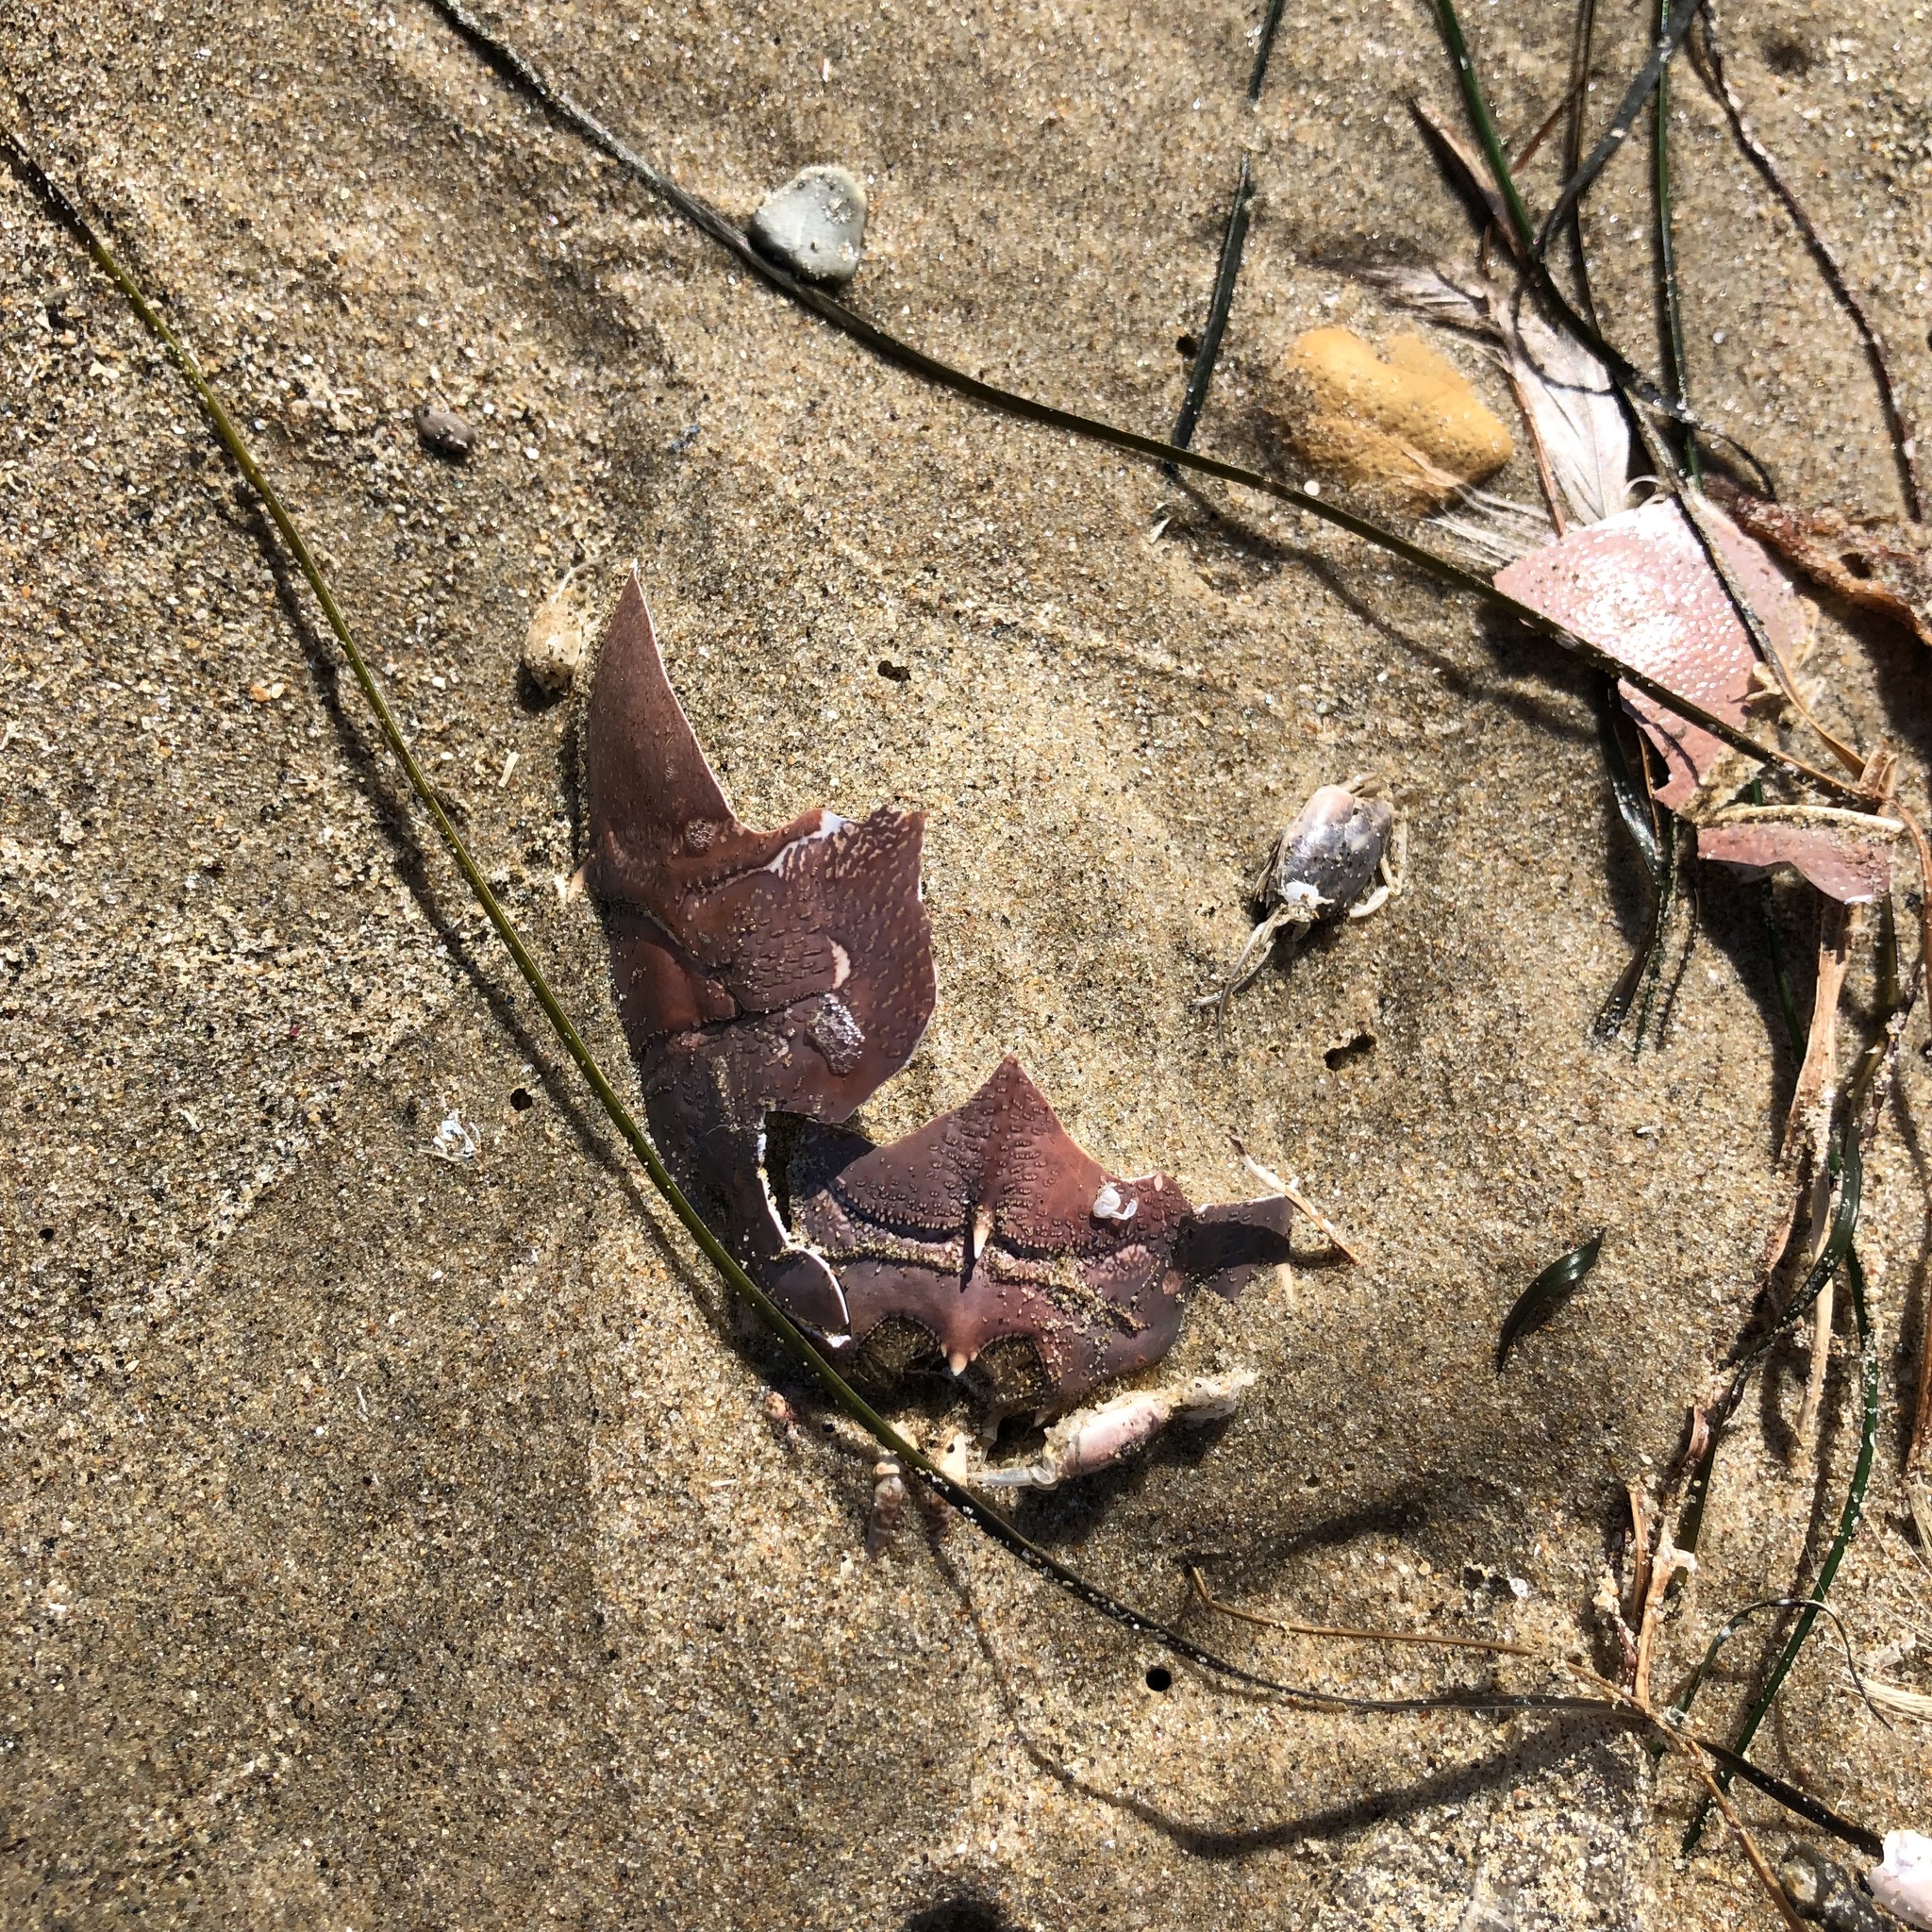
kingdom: Animalia
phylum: Arthropoda
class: Malacostraca
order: Decapoda
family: Blepharipodidae
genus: Blepharipoda
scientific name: Blepharipoda occidentalis
